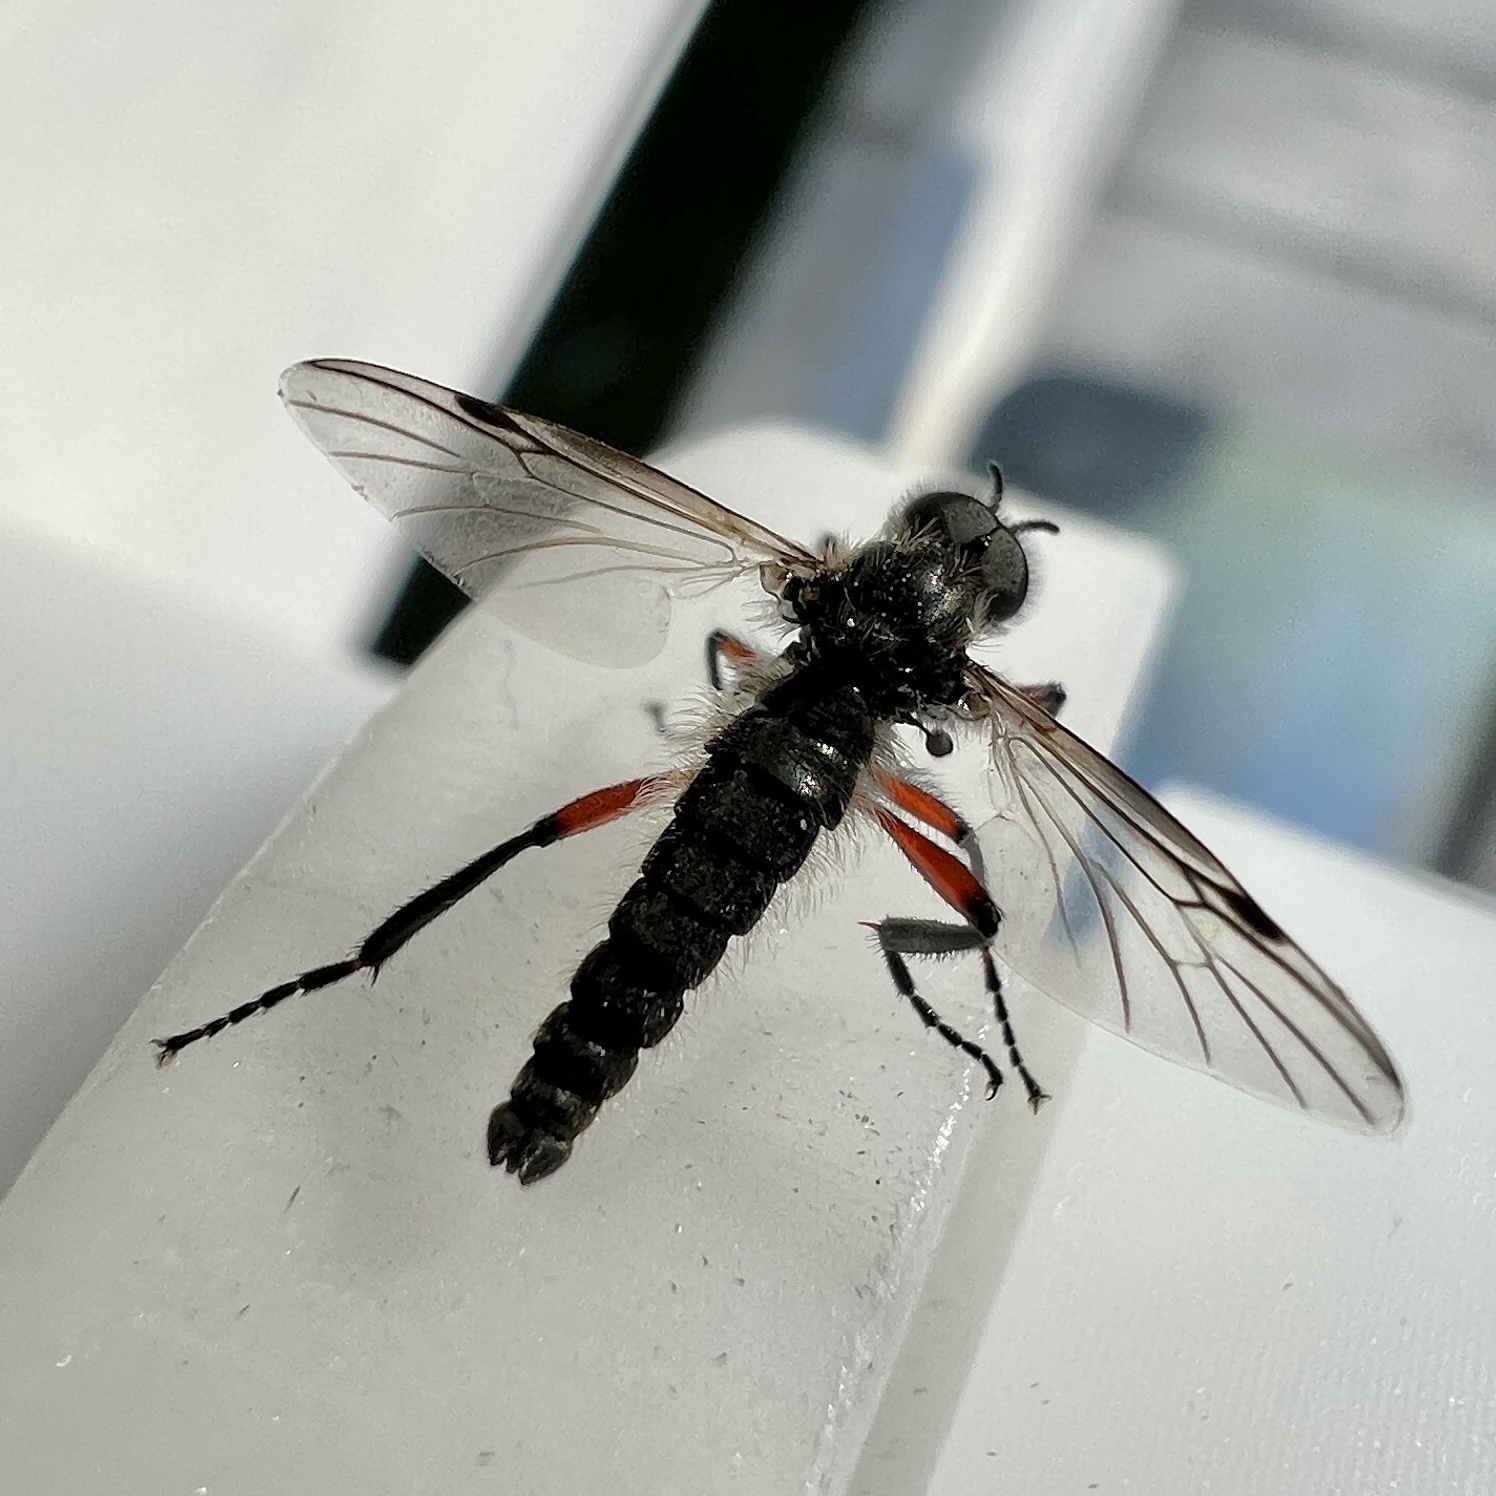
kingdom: Animalia
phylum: Arthropoda
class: Insecta
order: Diptera
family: Bibionidae
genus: Bibio
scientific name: Bibio
